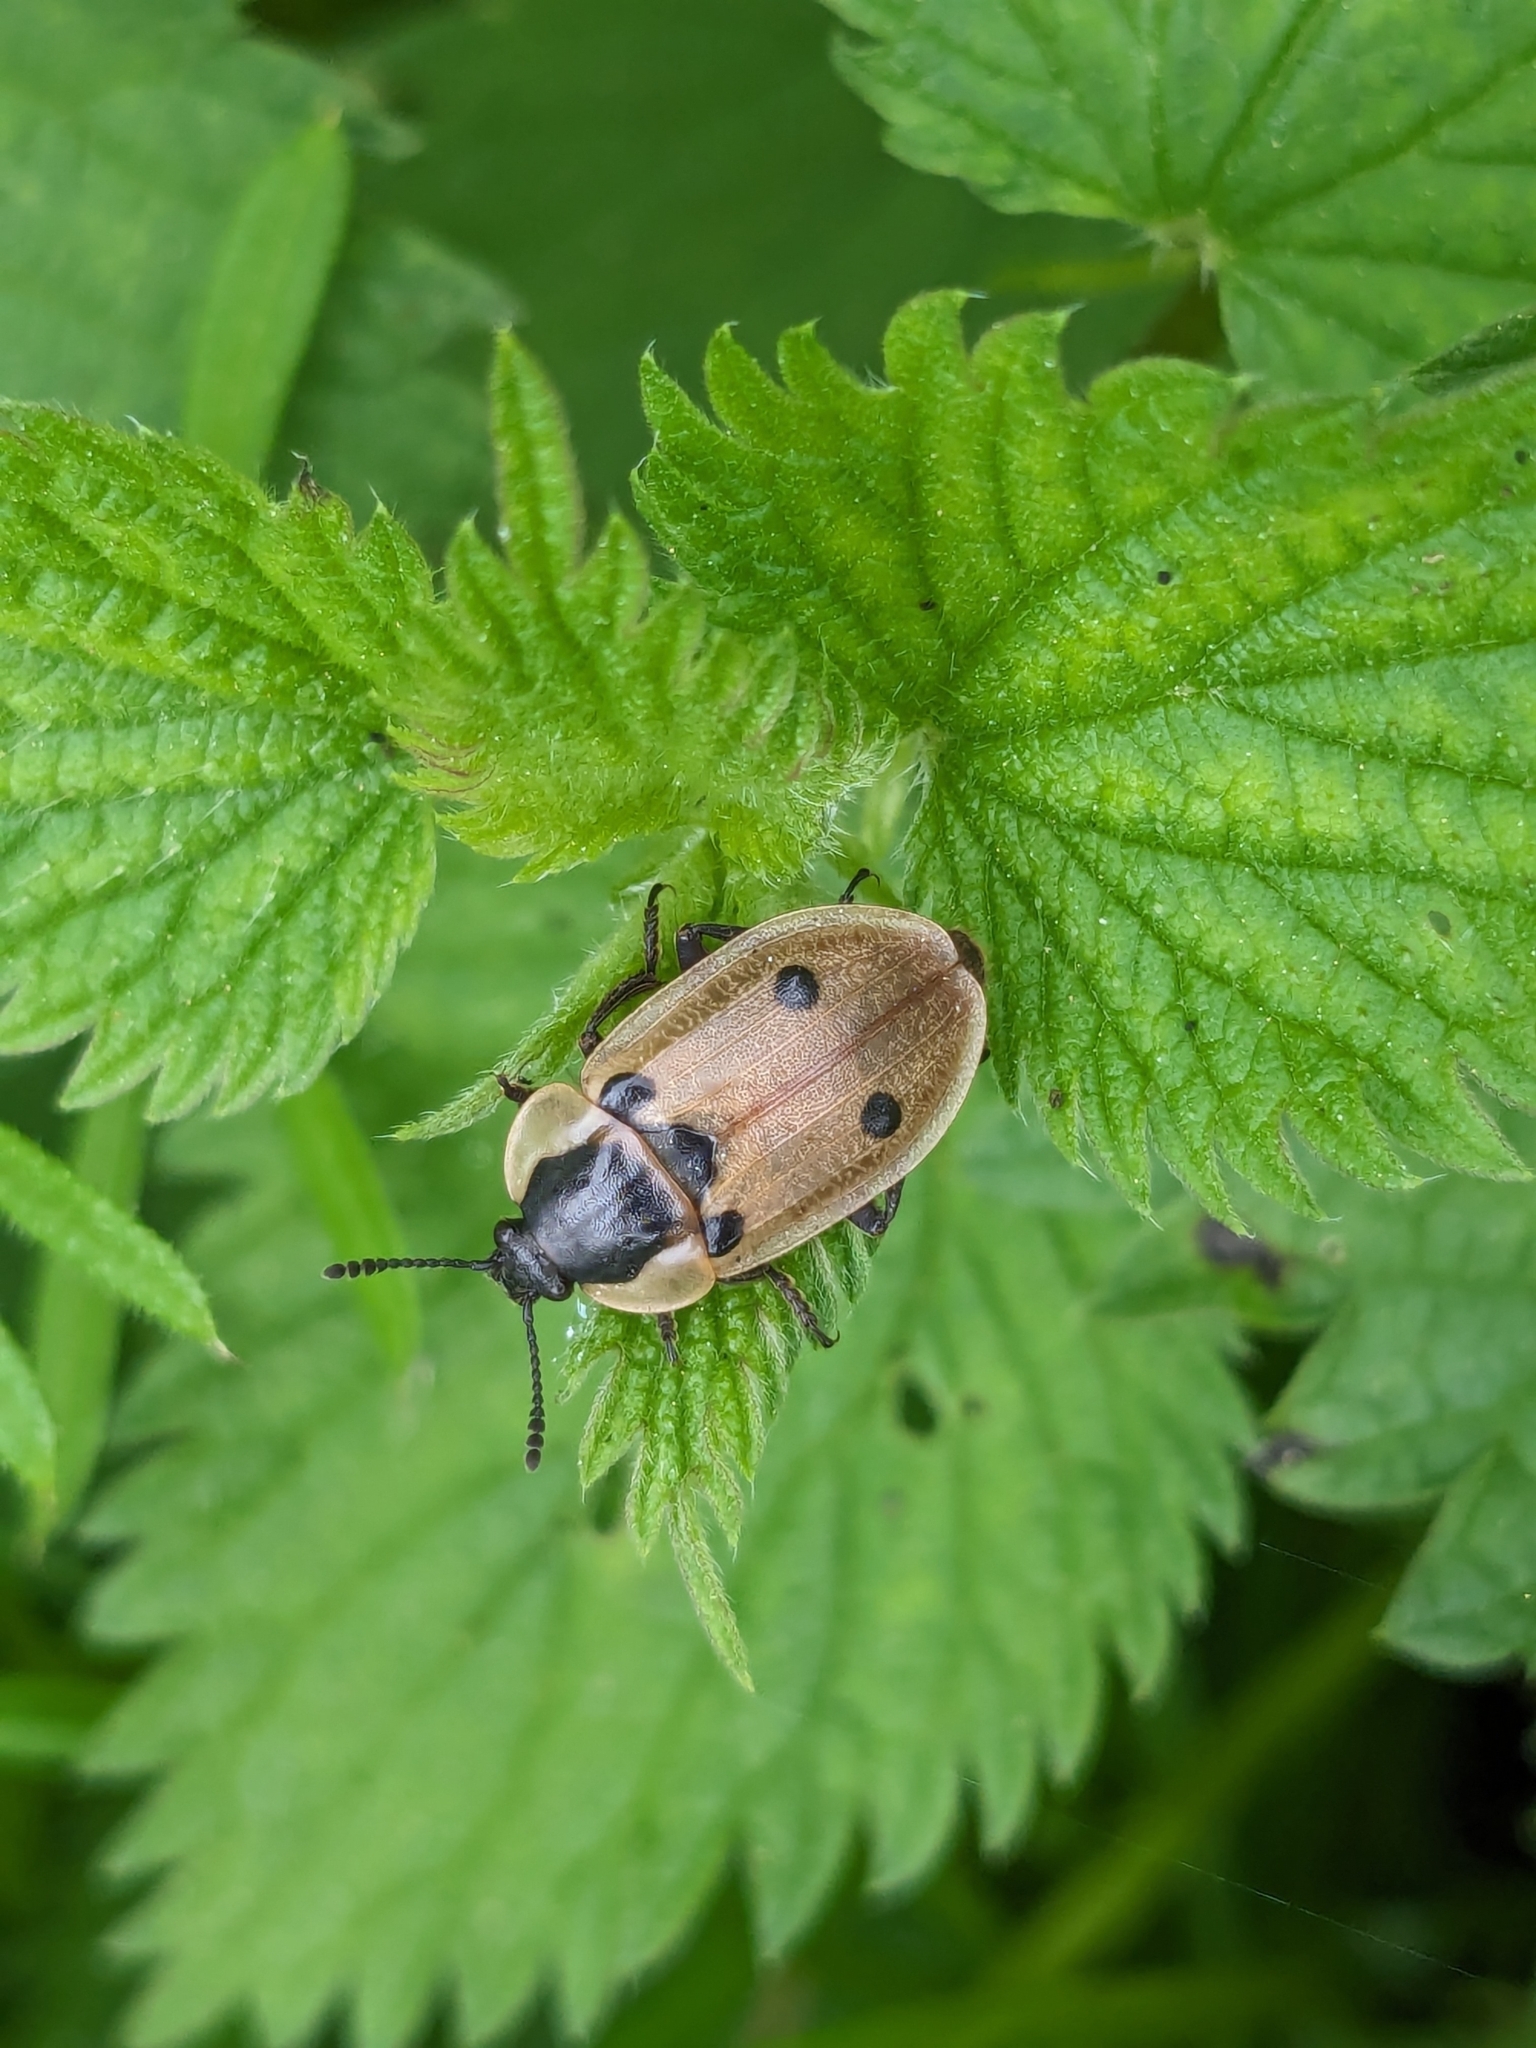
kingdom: Animalia
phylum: Arthropoda
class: Insecta
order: Coleoptera
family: Staphylinidae
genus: Dendroxena
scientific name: Dendroxena quadrimaculata
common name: Carrion beetle
